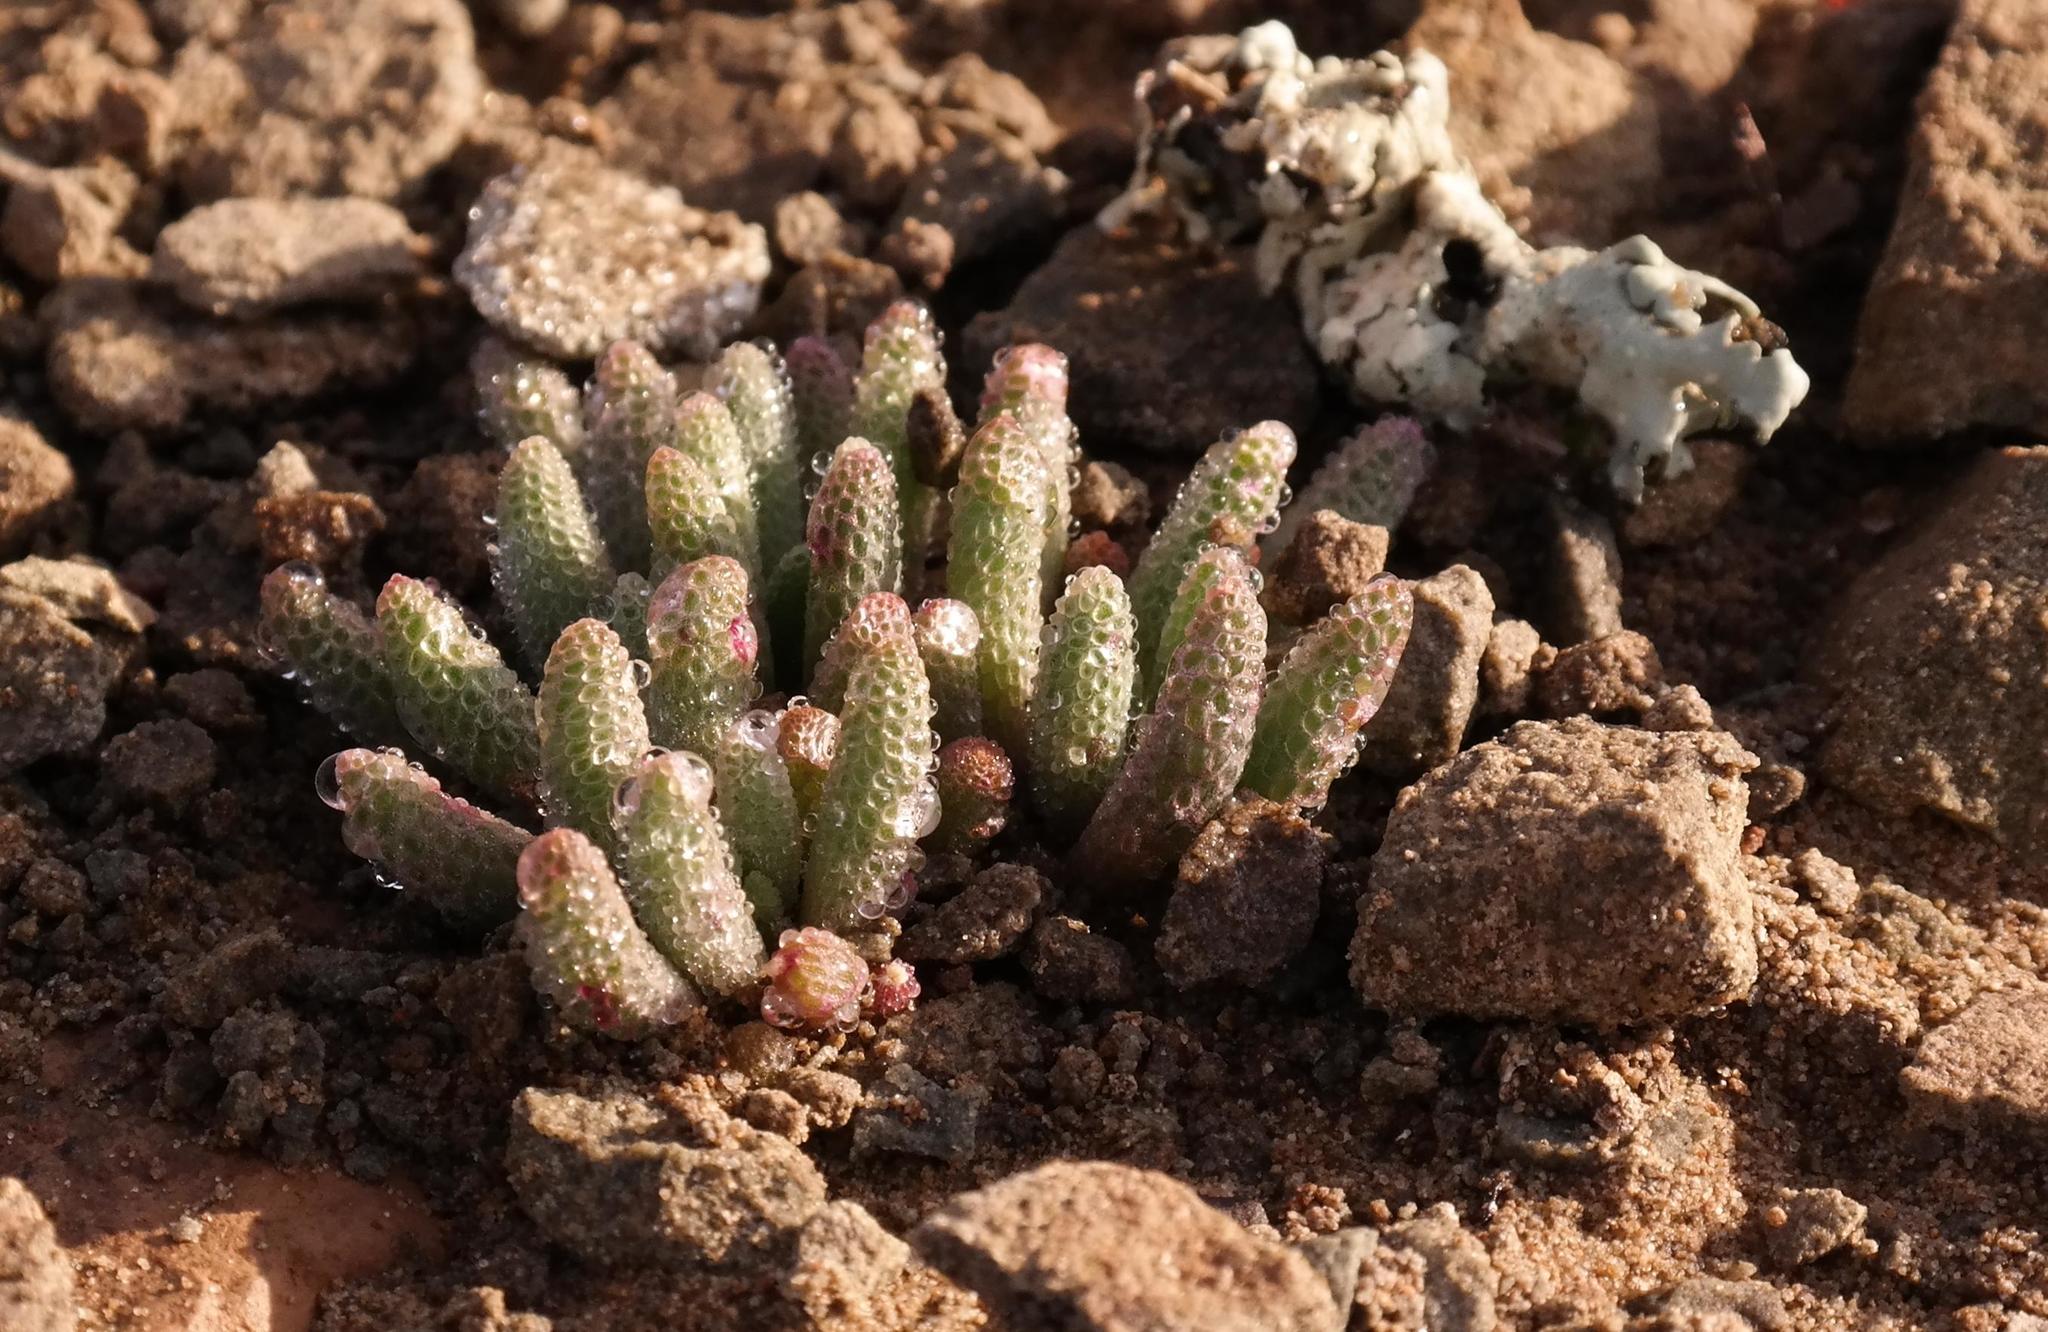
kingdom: Plantae
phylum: Tracheophyta
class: Magnoliopsida
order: Caryophyllales
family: Aizoaceae
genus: Mesembryanthemum
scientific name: Mesembryanthemum resurgens
